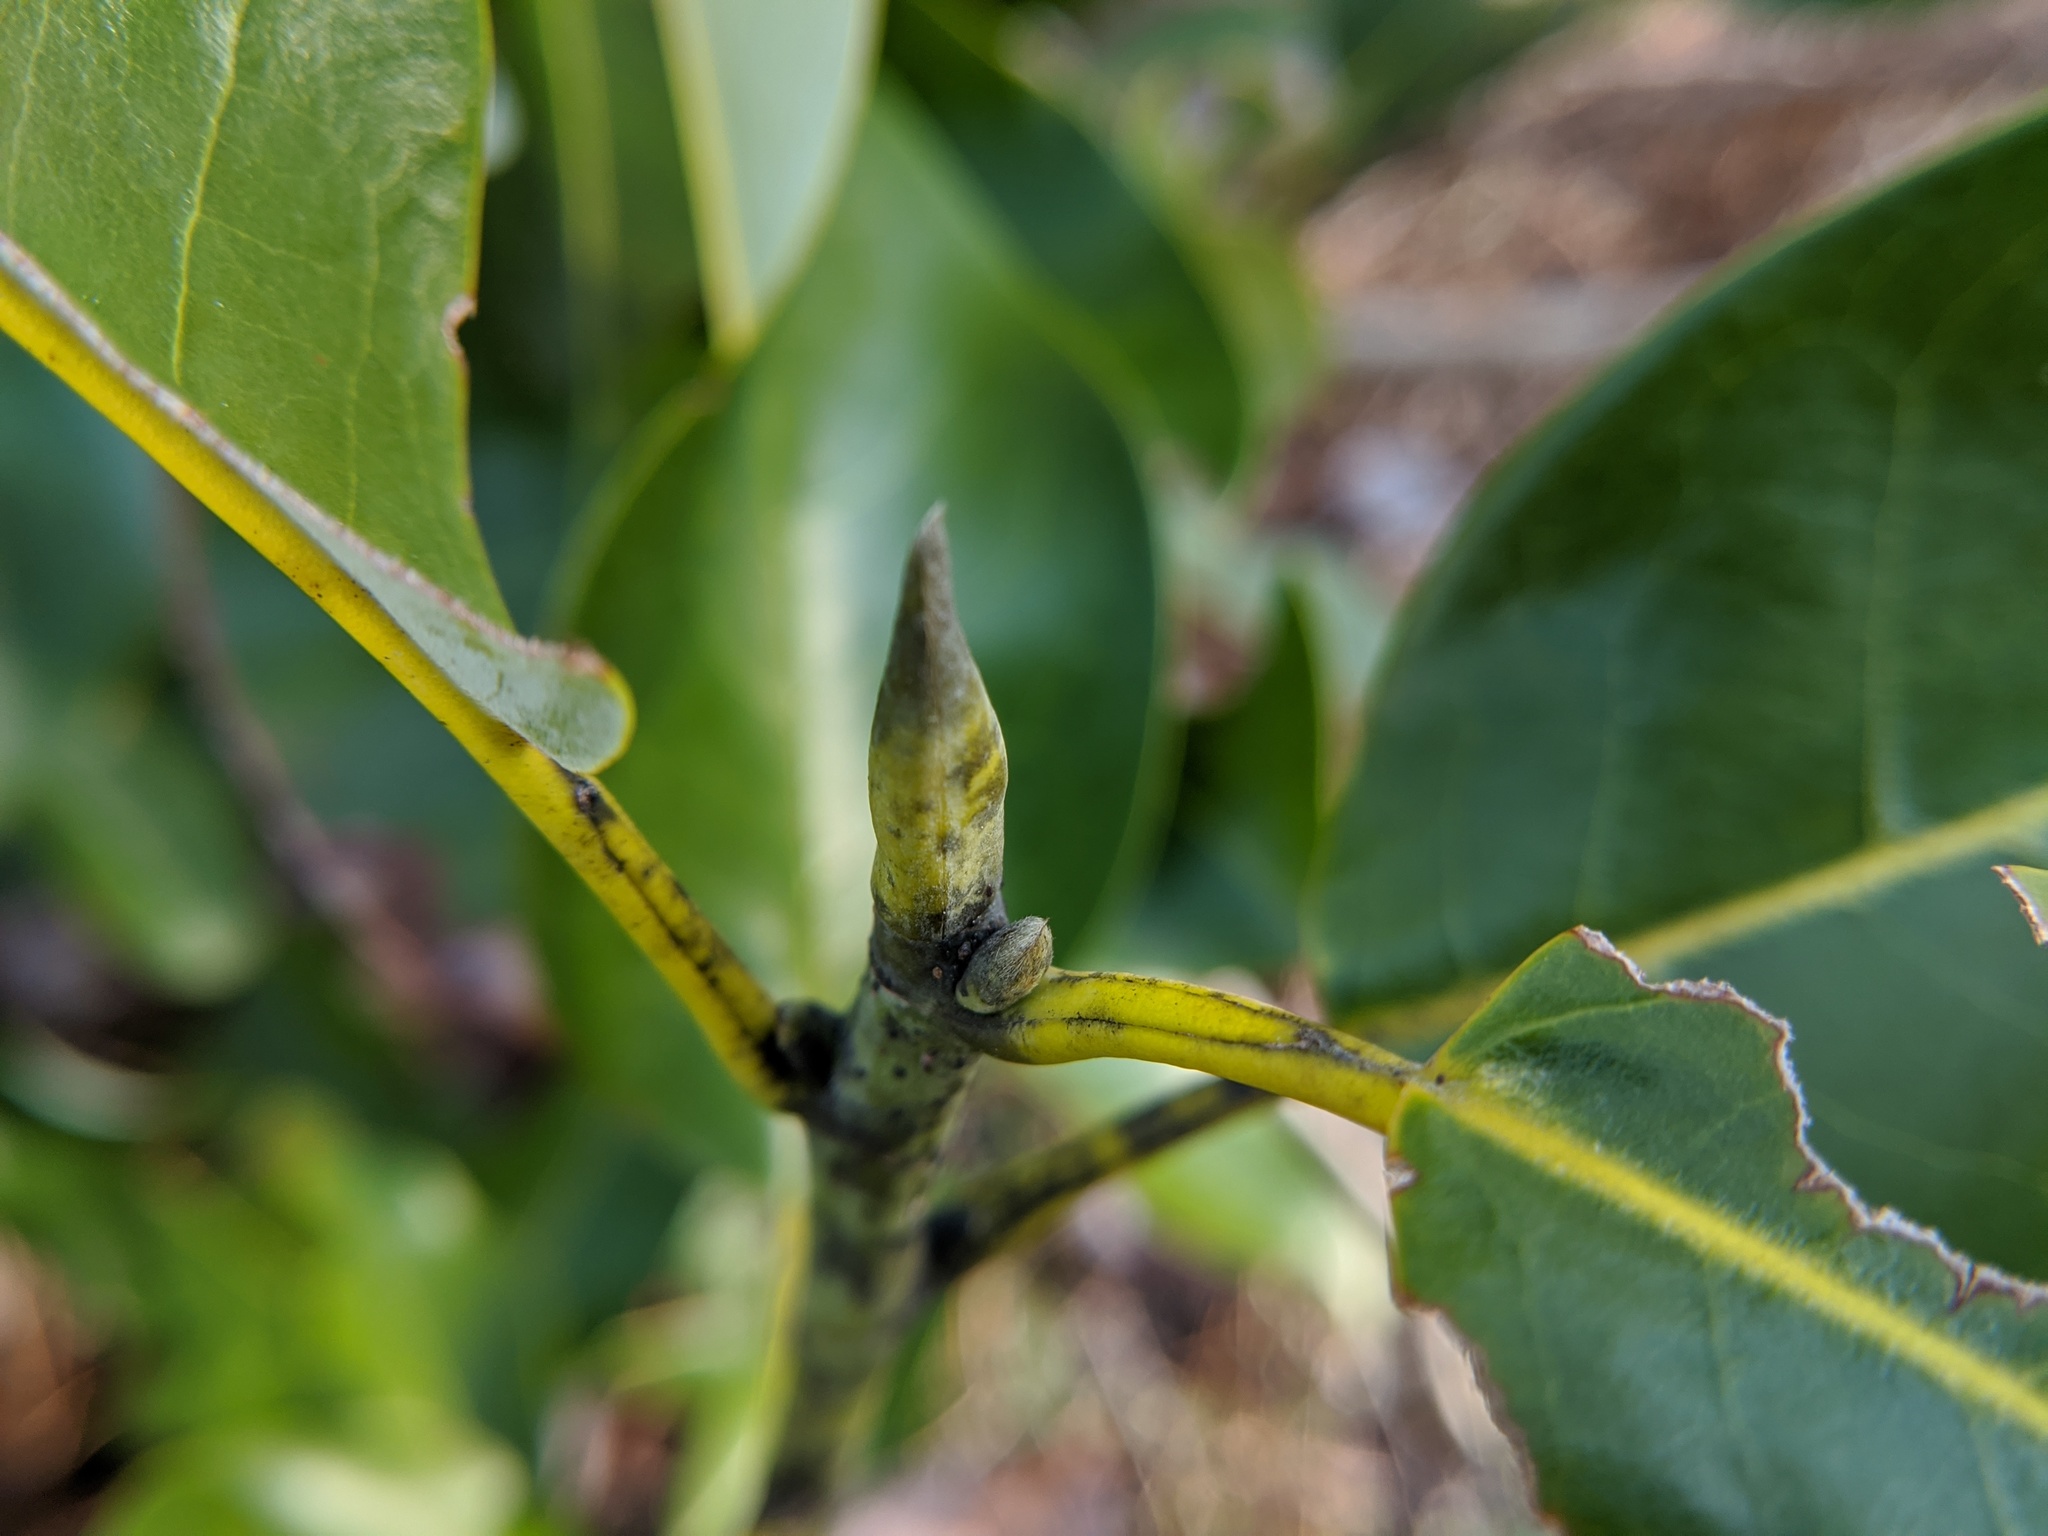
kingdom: Plantae
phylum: Tracheophyta
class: Magnoliopsida
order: Magnoliales
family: Magnoliaceae
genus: Magnolia
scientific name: Magnolia virginiana
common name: Swamp bay
